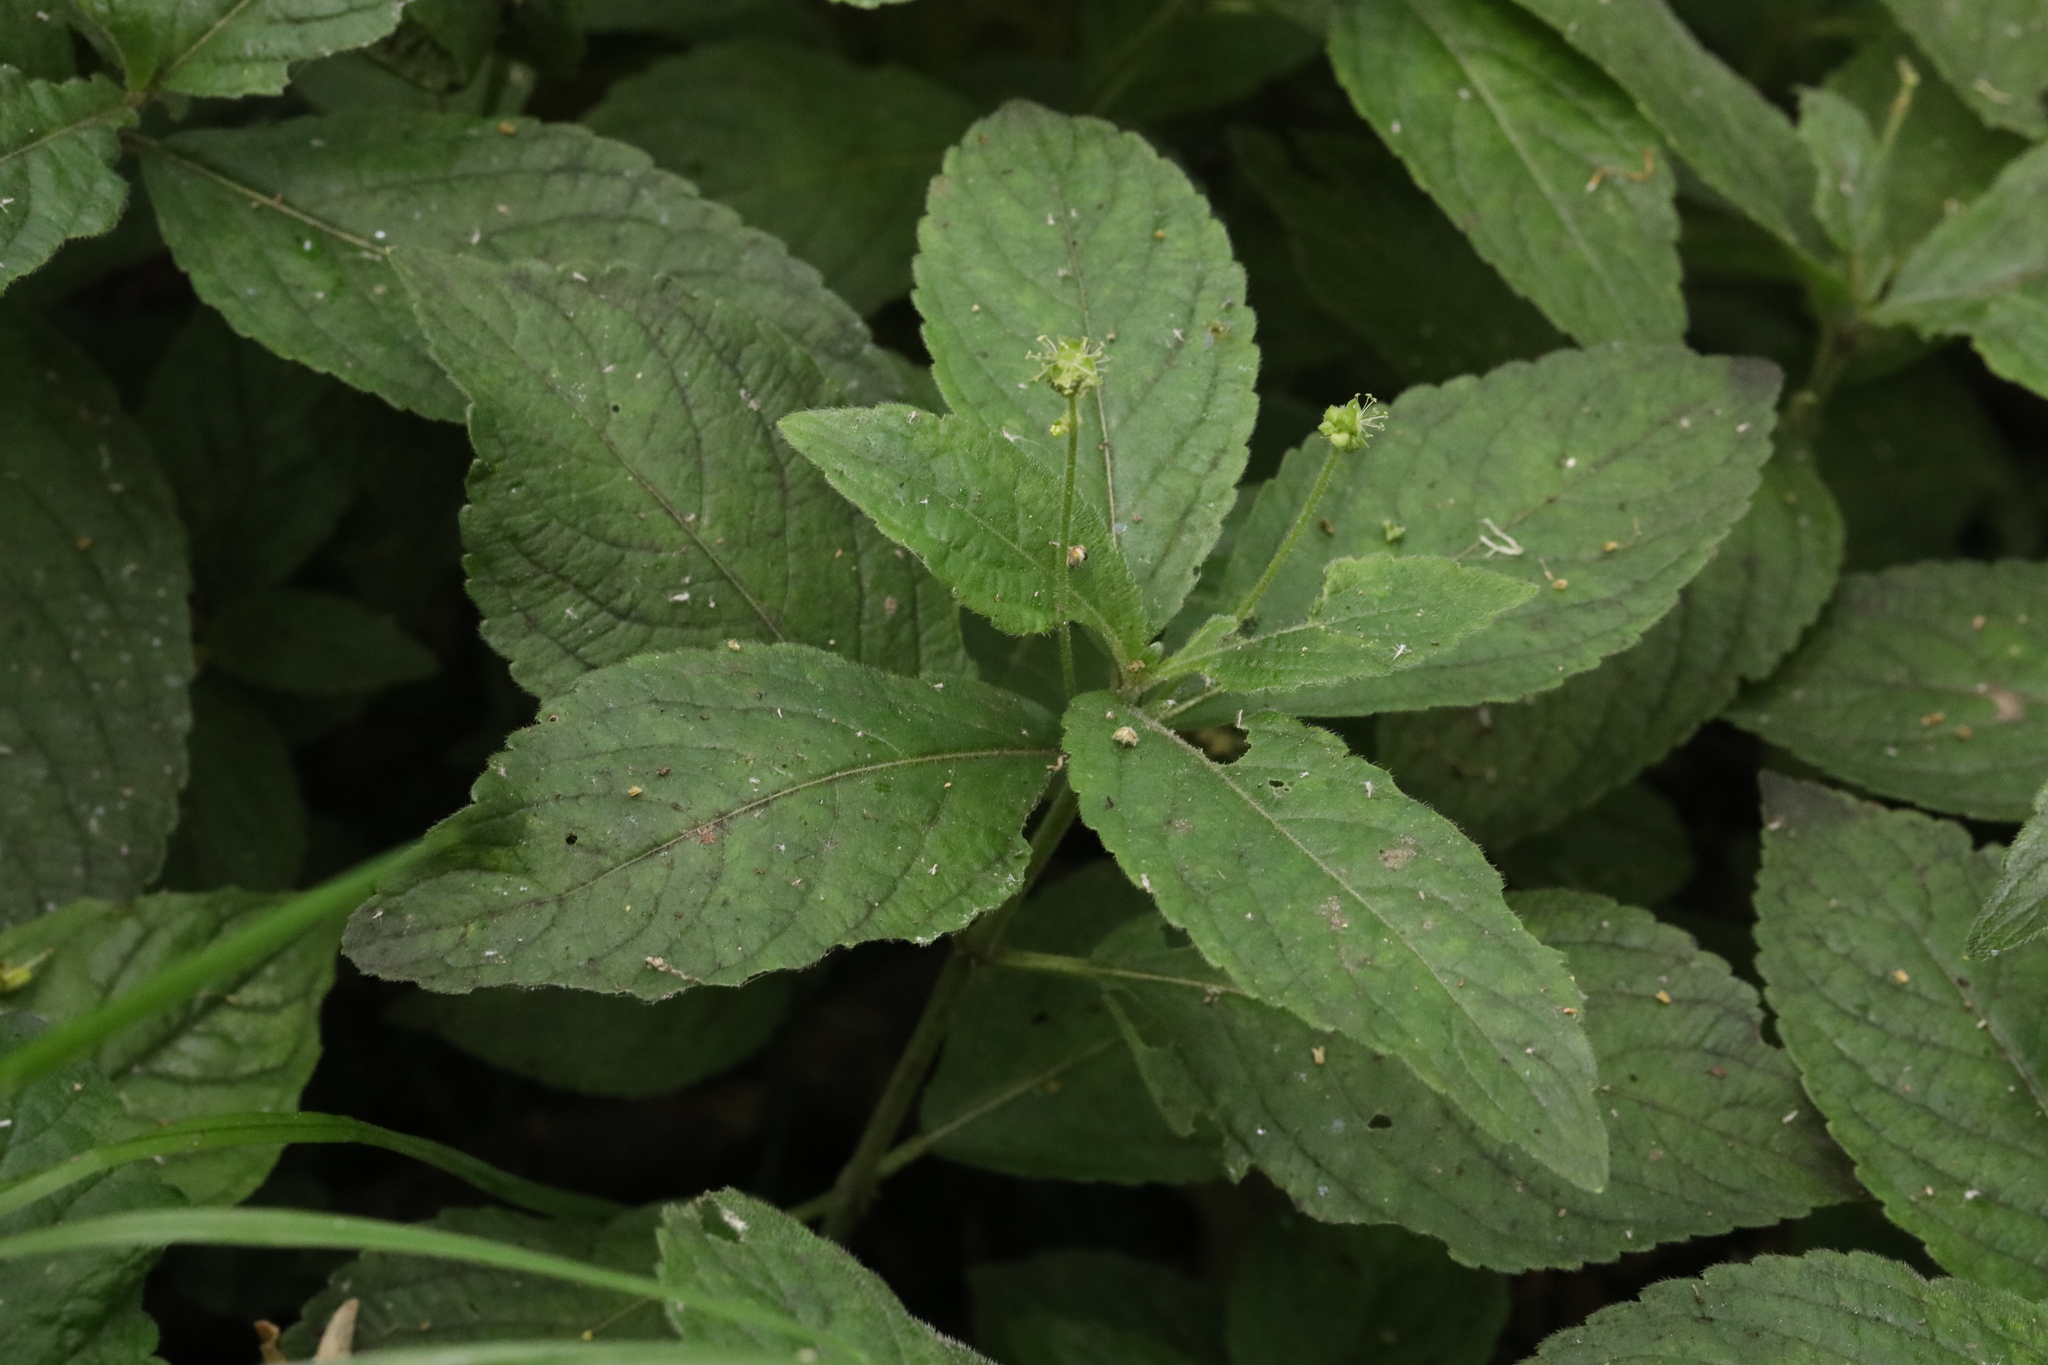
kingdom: Plantae
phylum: Tracheophyta
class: Magnoliopsida
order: Malpighiales
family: Euphorbiaceae
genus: Mercurialis
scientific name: Mercurialis perennis
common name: Dog mercury
